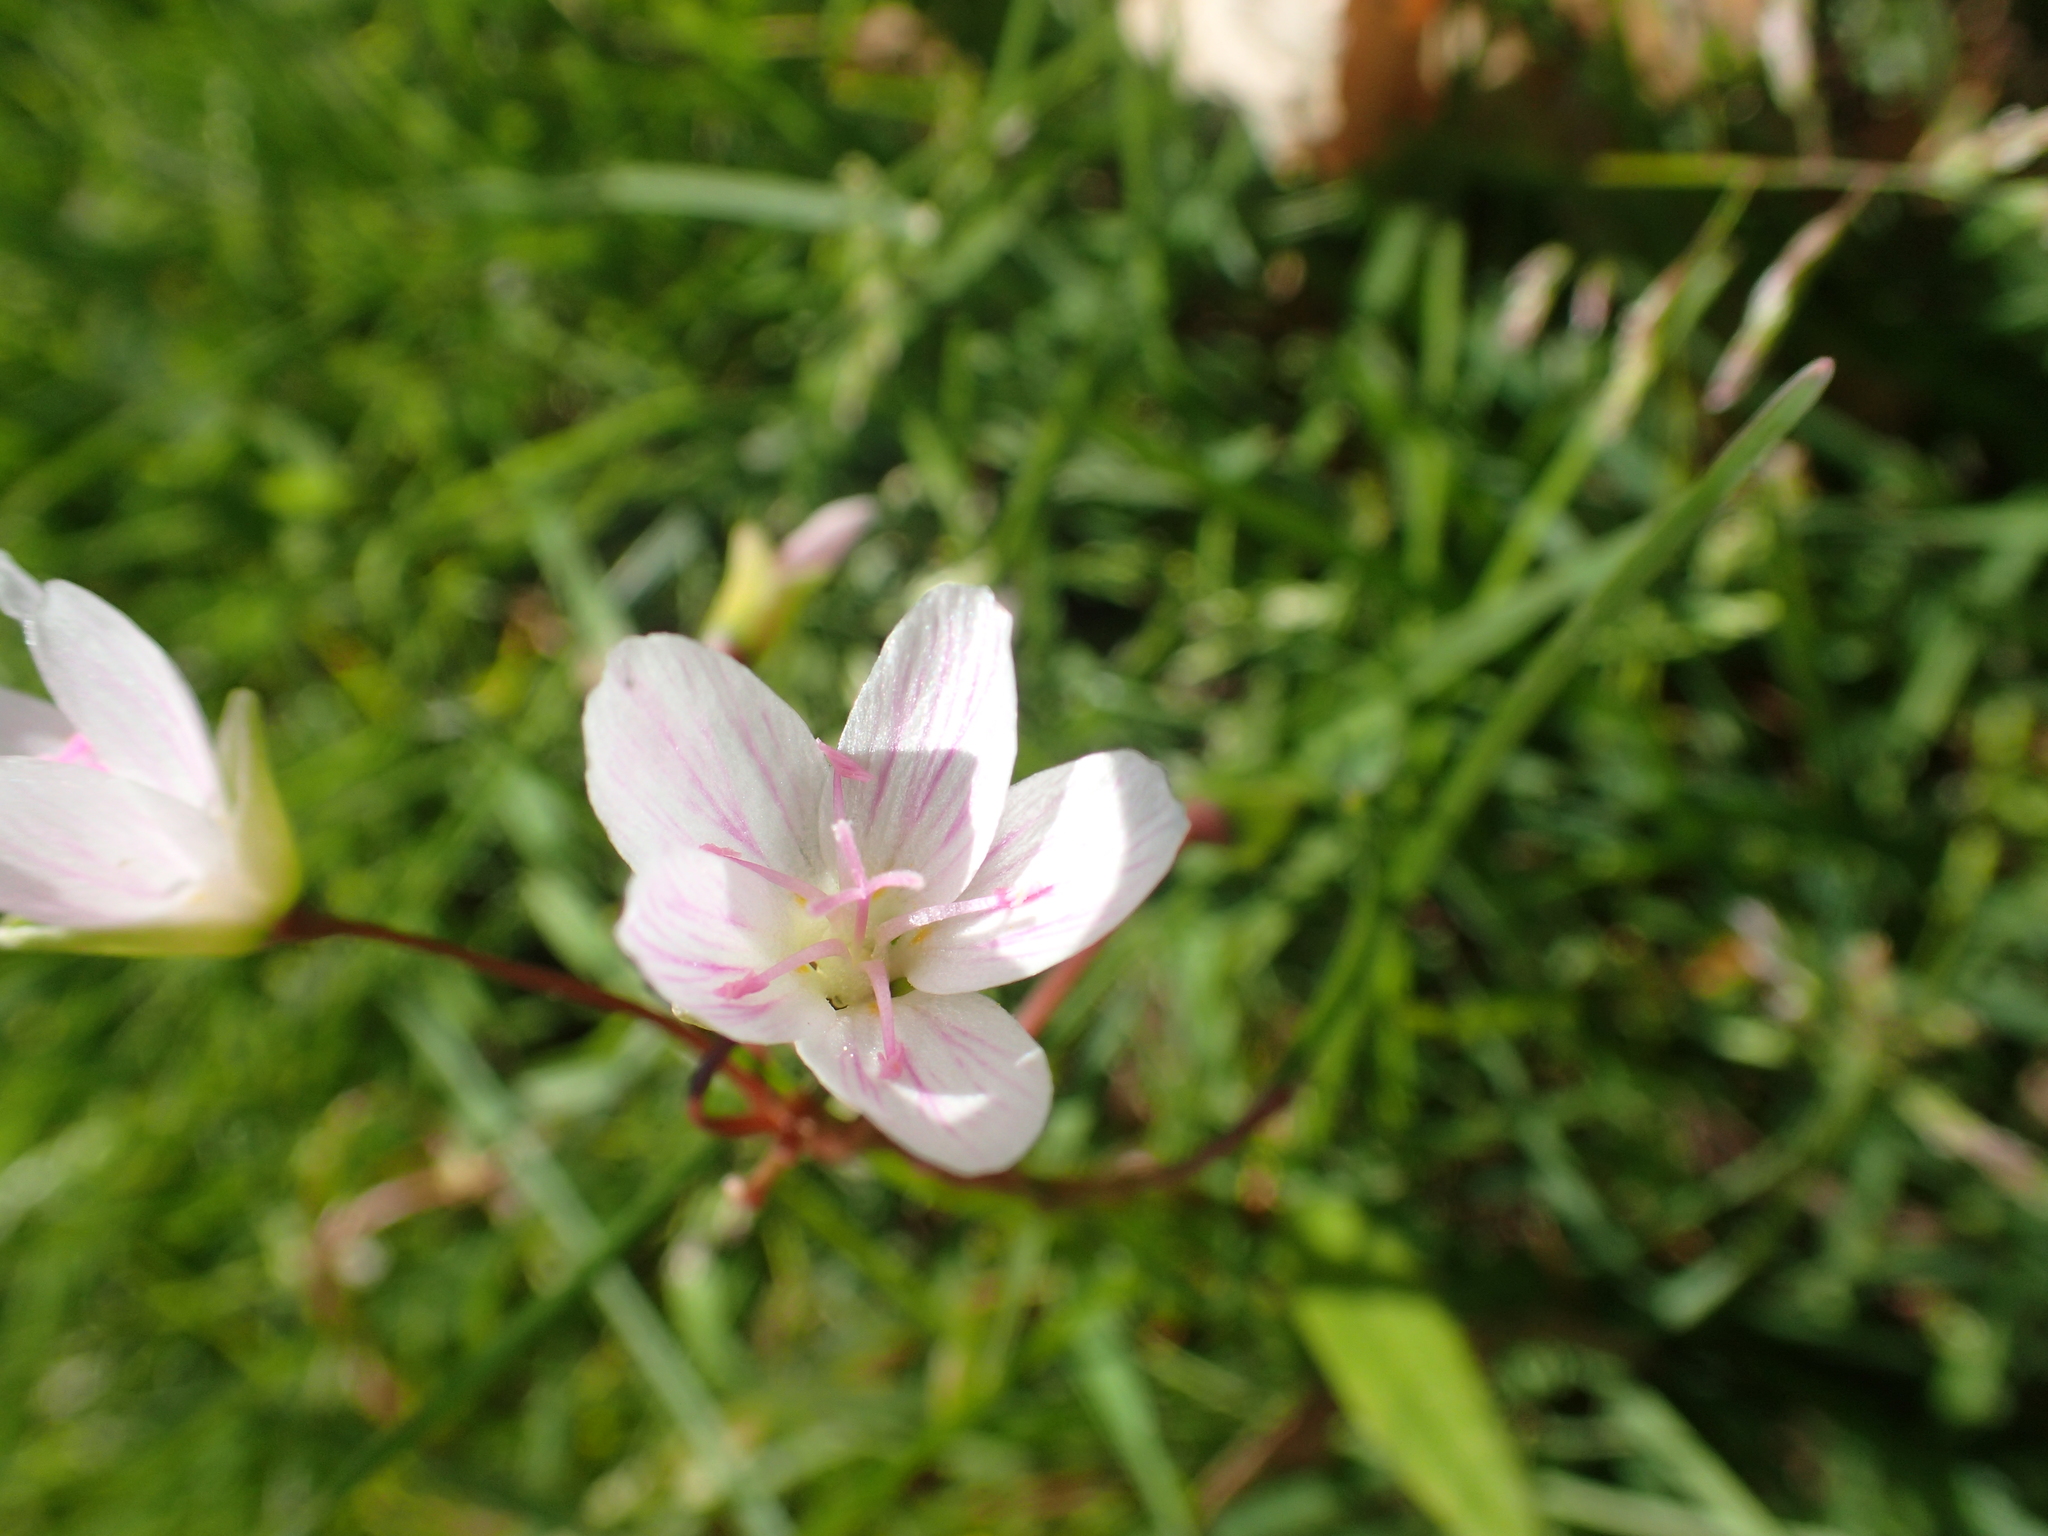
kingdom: Plantae
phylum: Tracheophyta
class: Magnoliopsida
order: Caryophyllales
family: Montiaceae
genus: Claytonia
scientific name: Claytonia virginica
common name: Virginia springbeauty
